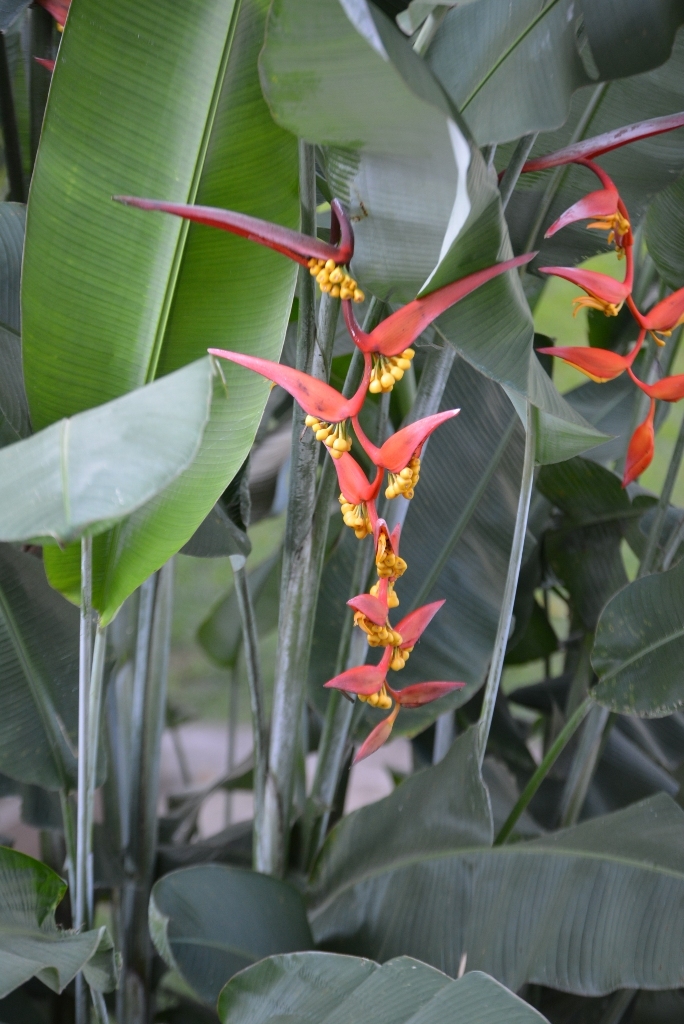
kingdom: Plantae
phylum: Tracheophyta
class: Liliopsida
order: Zingiberales
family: Heliconiaceae
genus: Heliconia
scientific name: Heliconia collinsiana
